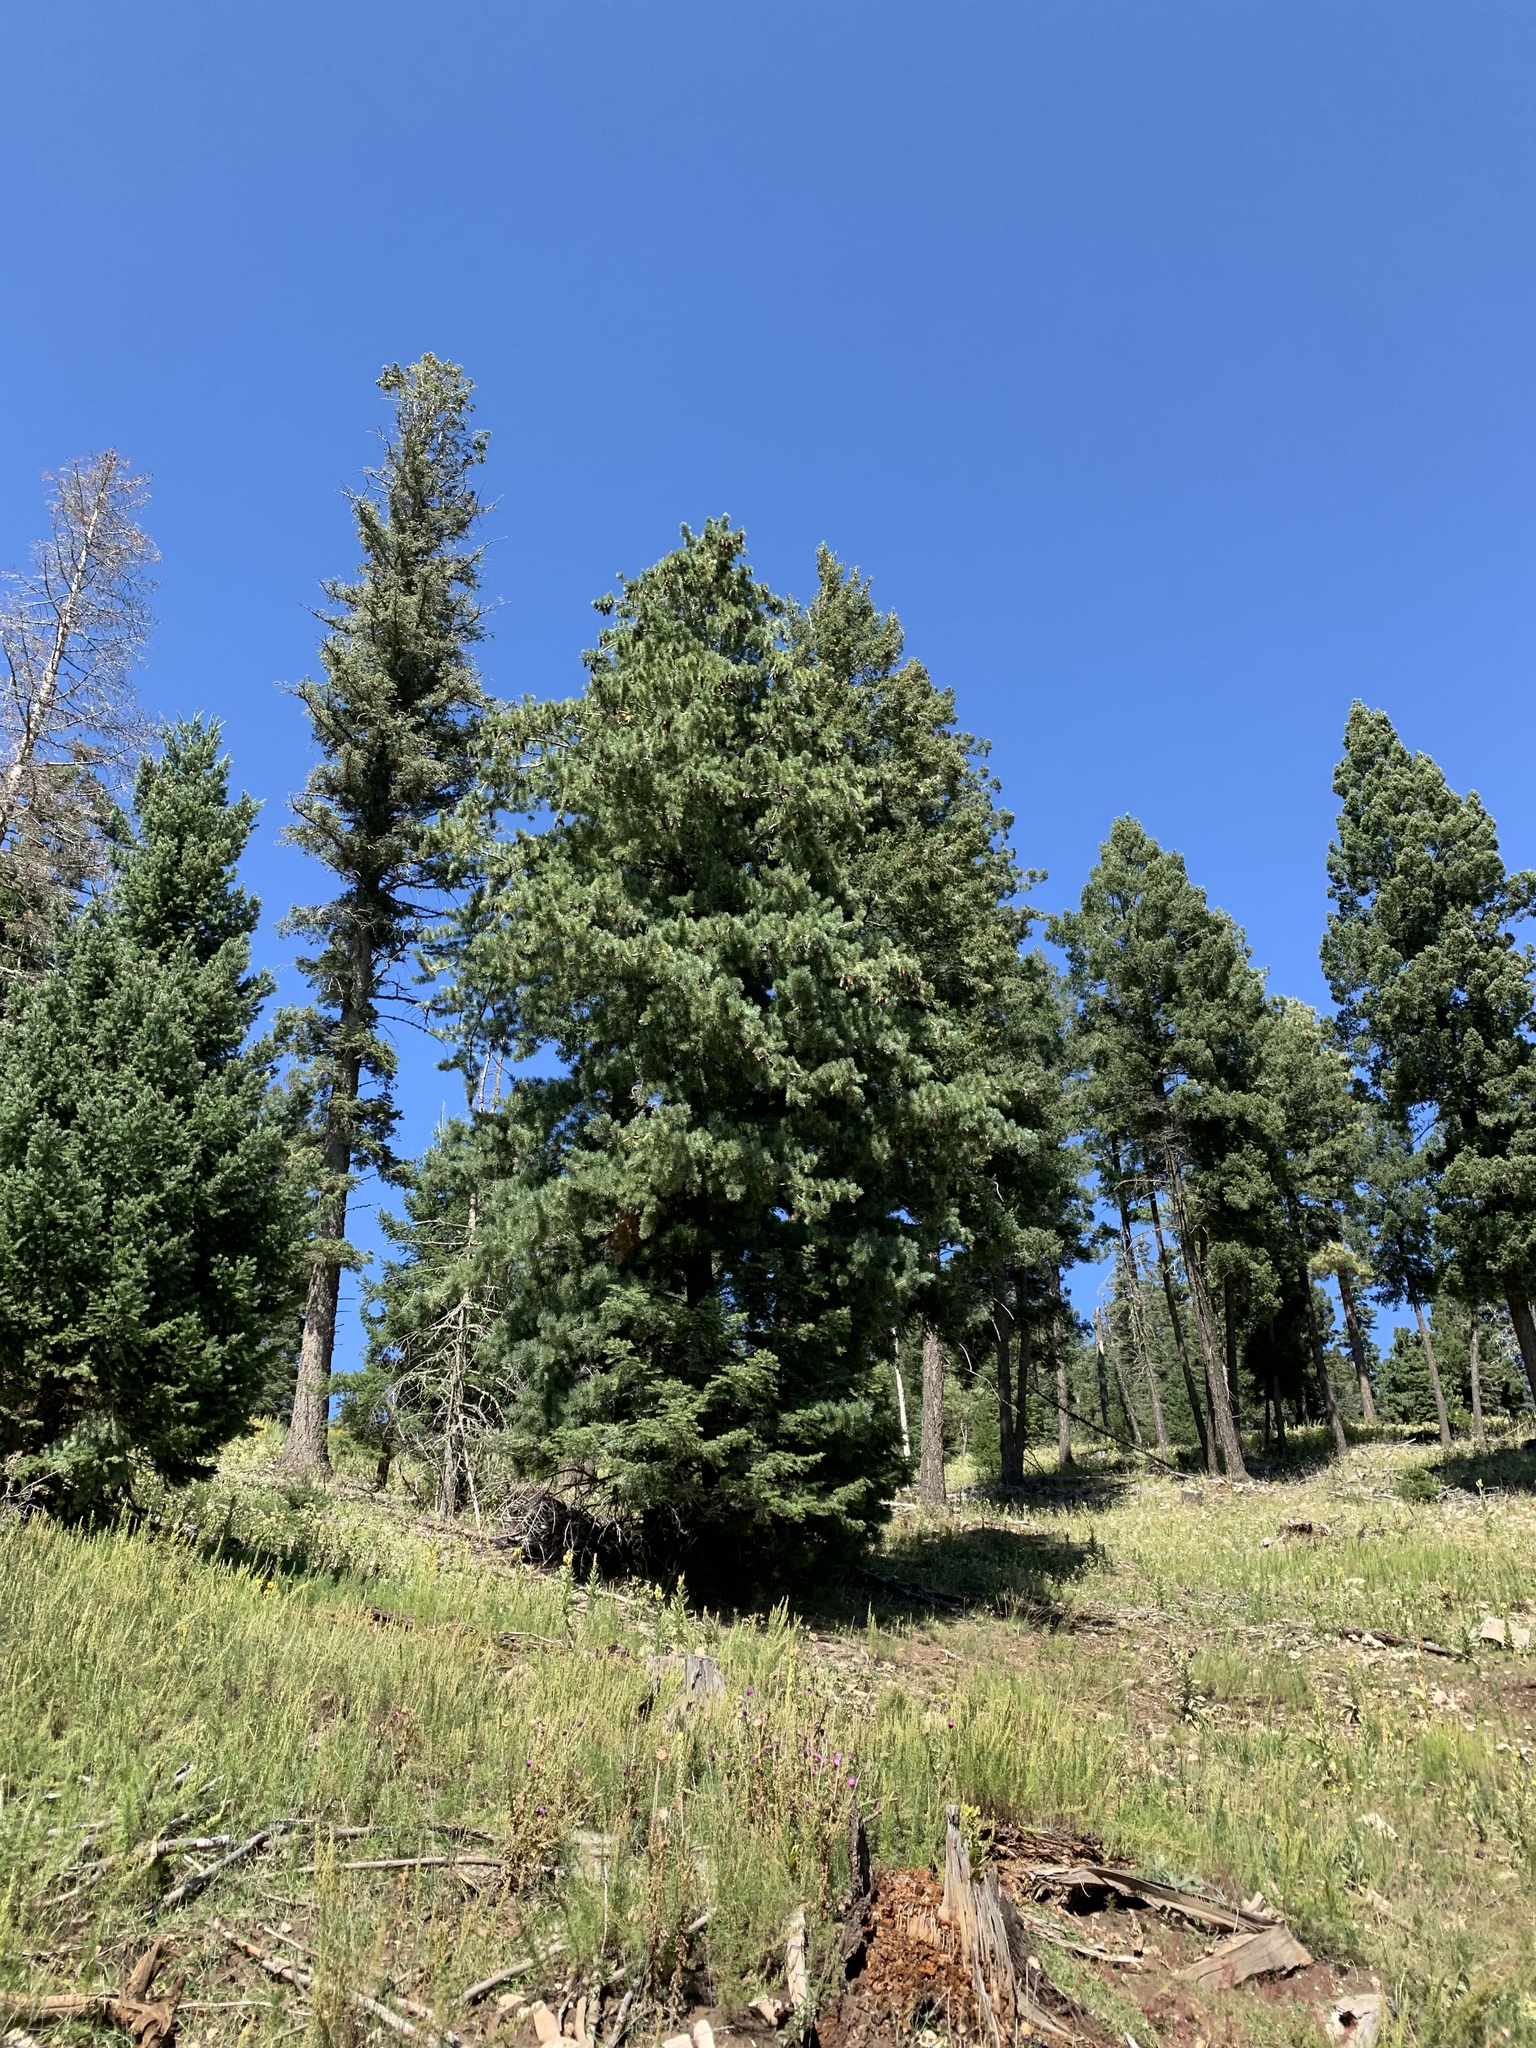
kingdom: Plantae
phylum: Tracheophyta
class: Pinopsida
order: Pinales
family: Pinaceae
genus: Pinus
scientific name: Pinus strobiformis
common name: Southwestern white pine
